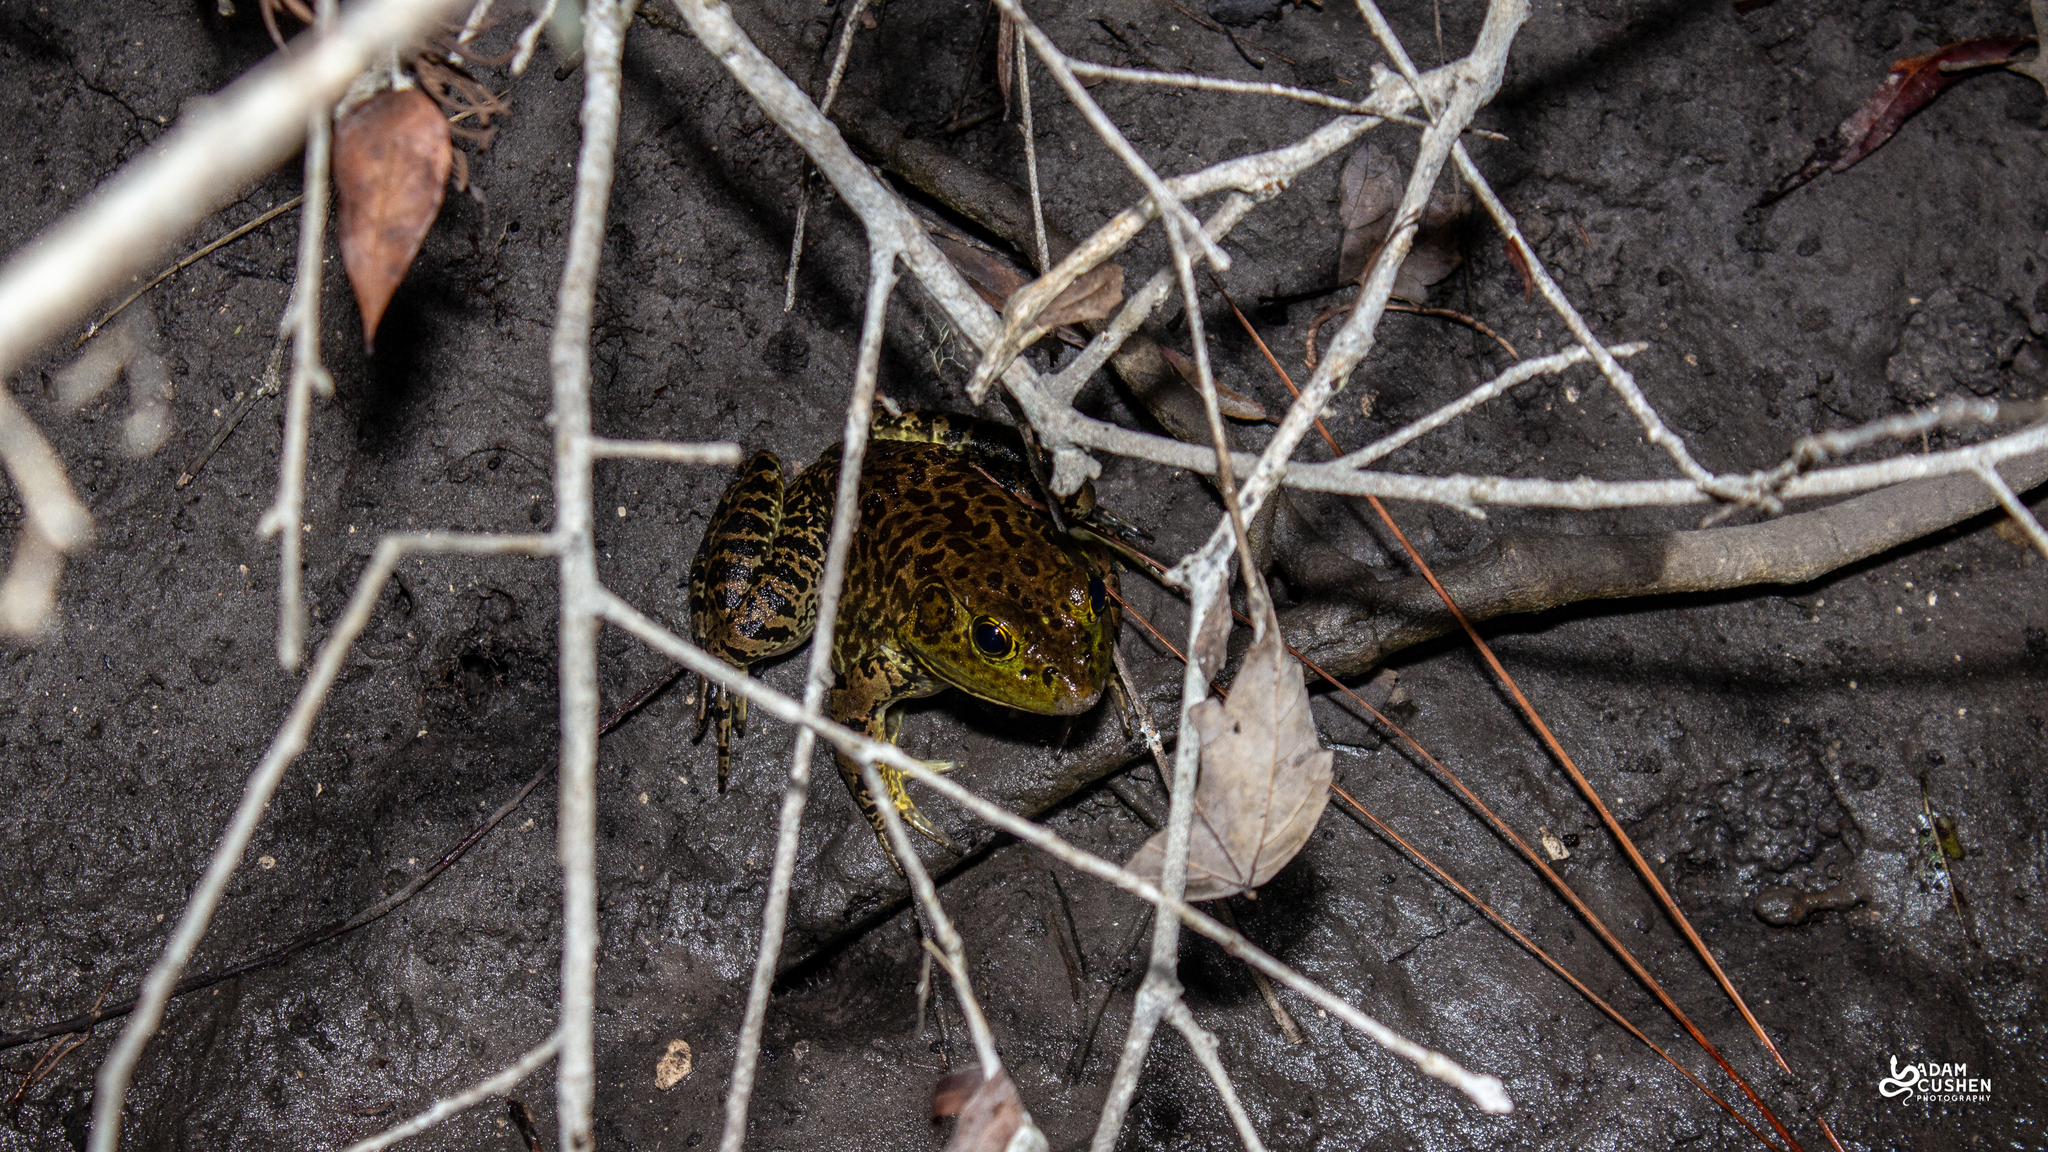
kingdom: Animalia
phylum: Chordata
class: Amphibia
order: Anura
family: Ranidae
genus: Lithobates
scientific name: Lithobates catesbeianus
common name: American bullfrog
